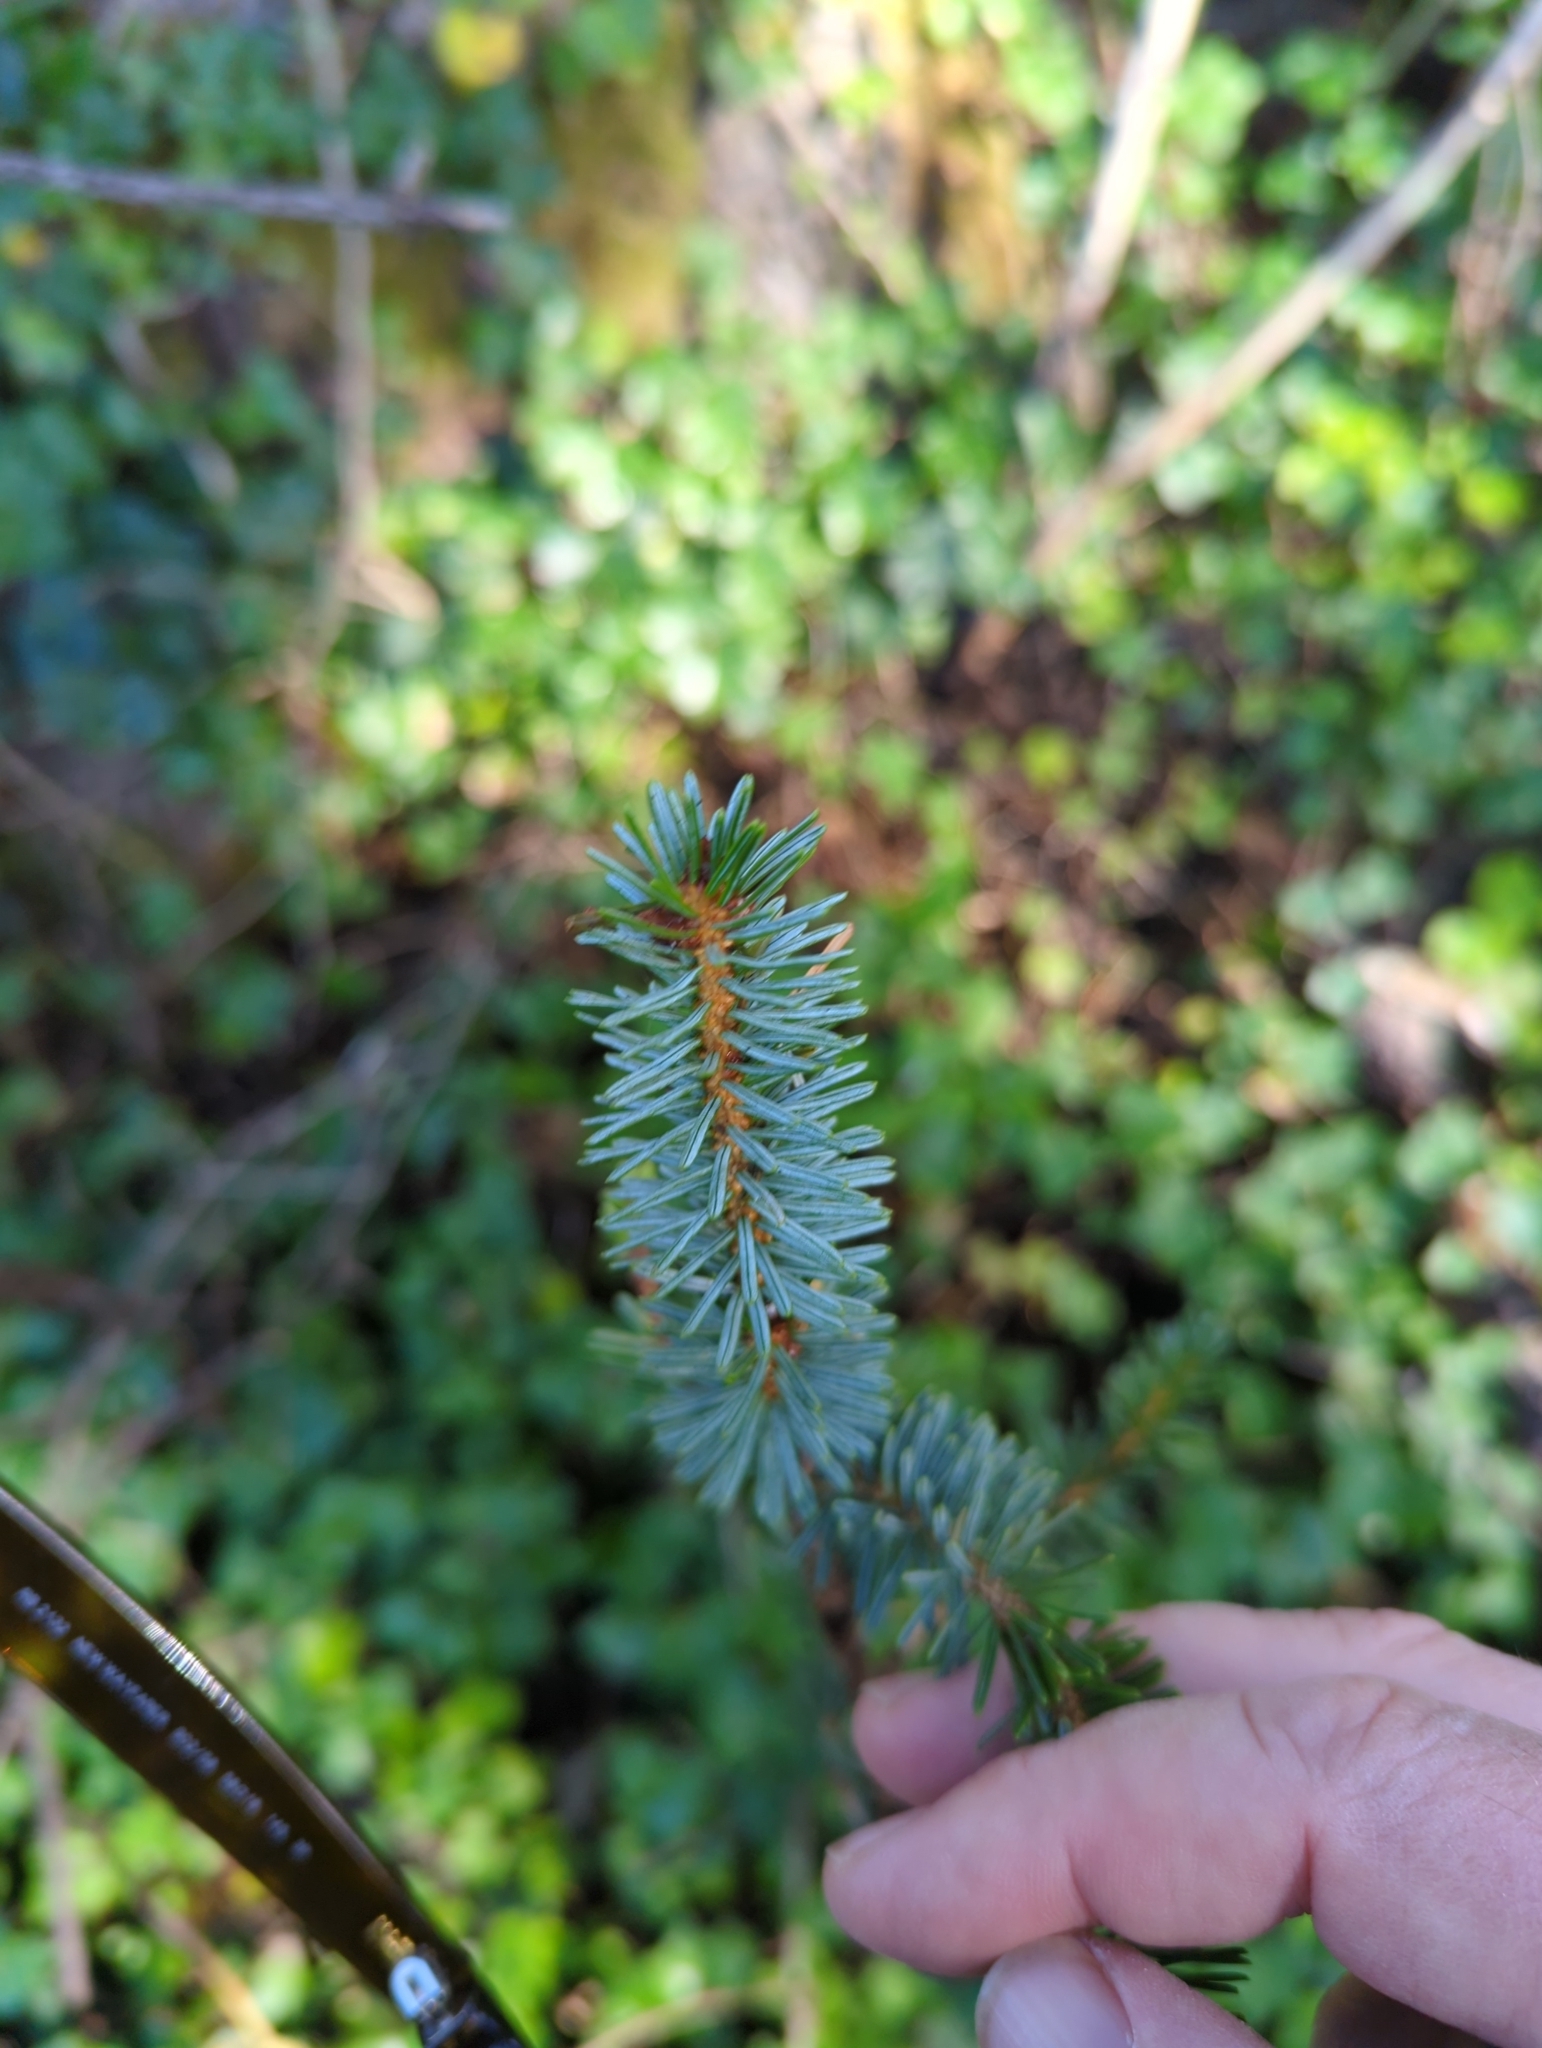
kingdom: Plantae
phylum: Tracheophyta
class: Pinopsida
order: Pinales
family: Pinaceae
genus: Picea
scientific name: Picea sitchensis
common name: Sitka spruce
